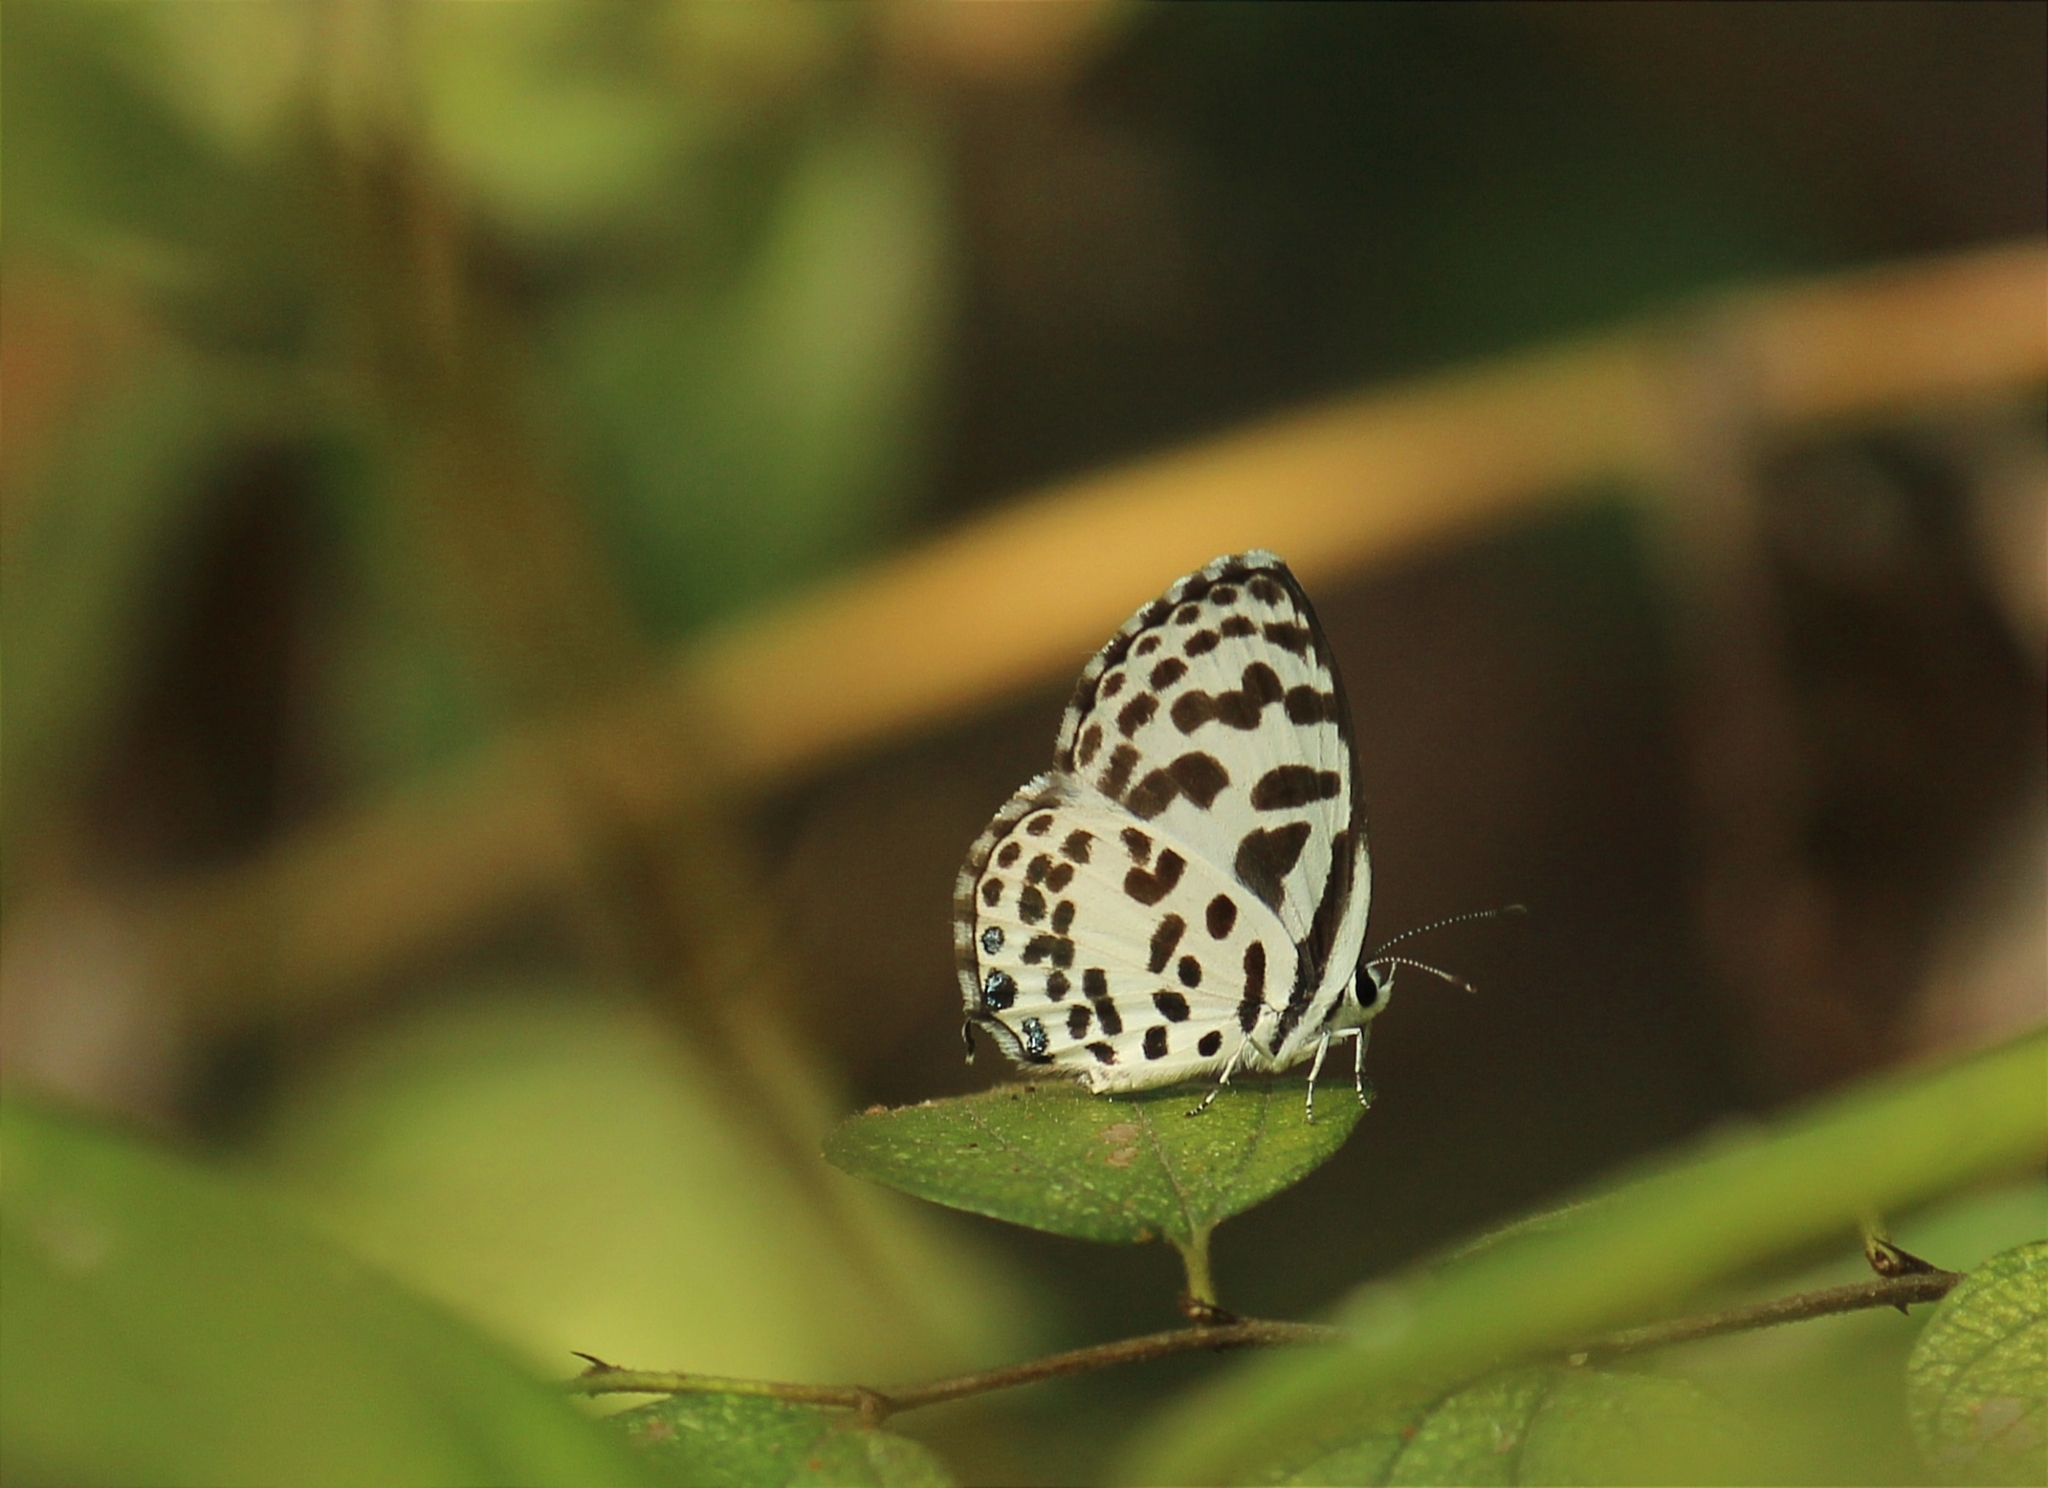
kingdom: Animalia
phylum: Arthropoda
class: Insecta
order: Lepidoptera
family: Lycaenidae
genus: Castalius
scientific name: Castalius rosimon
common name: Common pierrot
